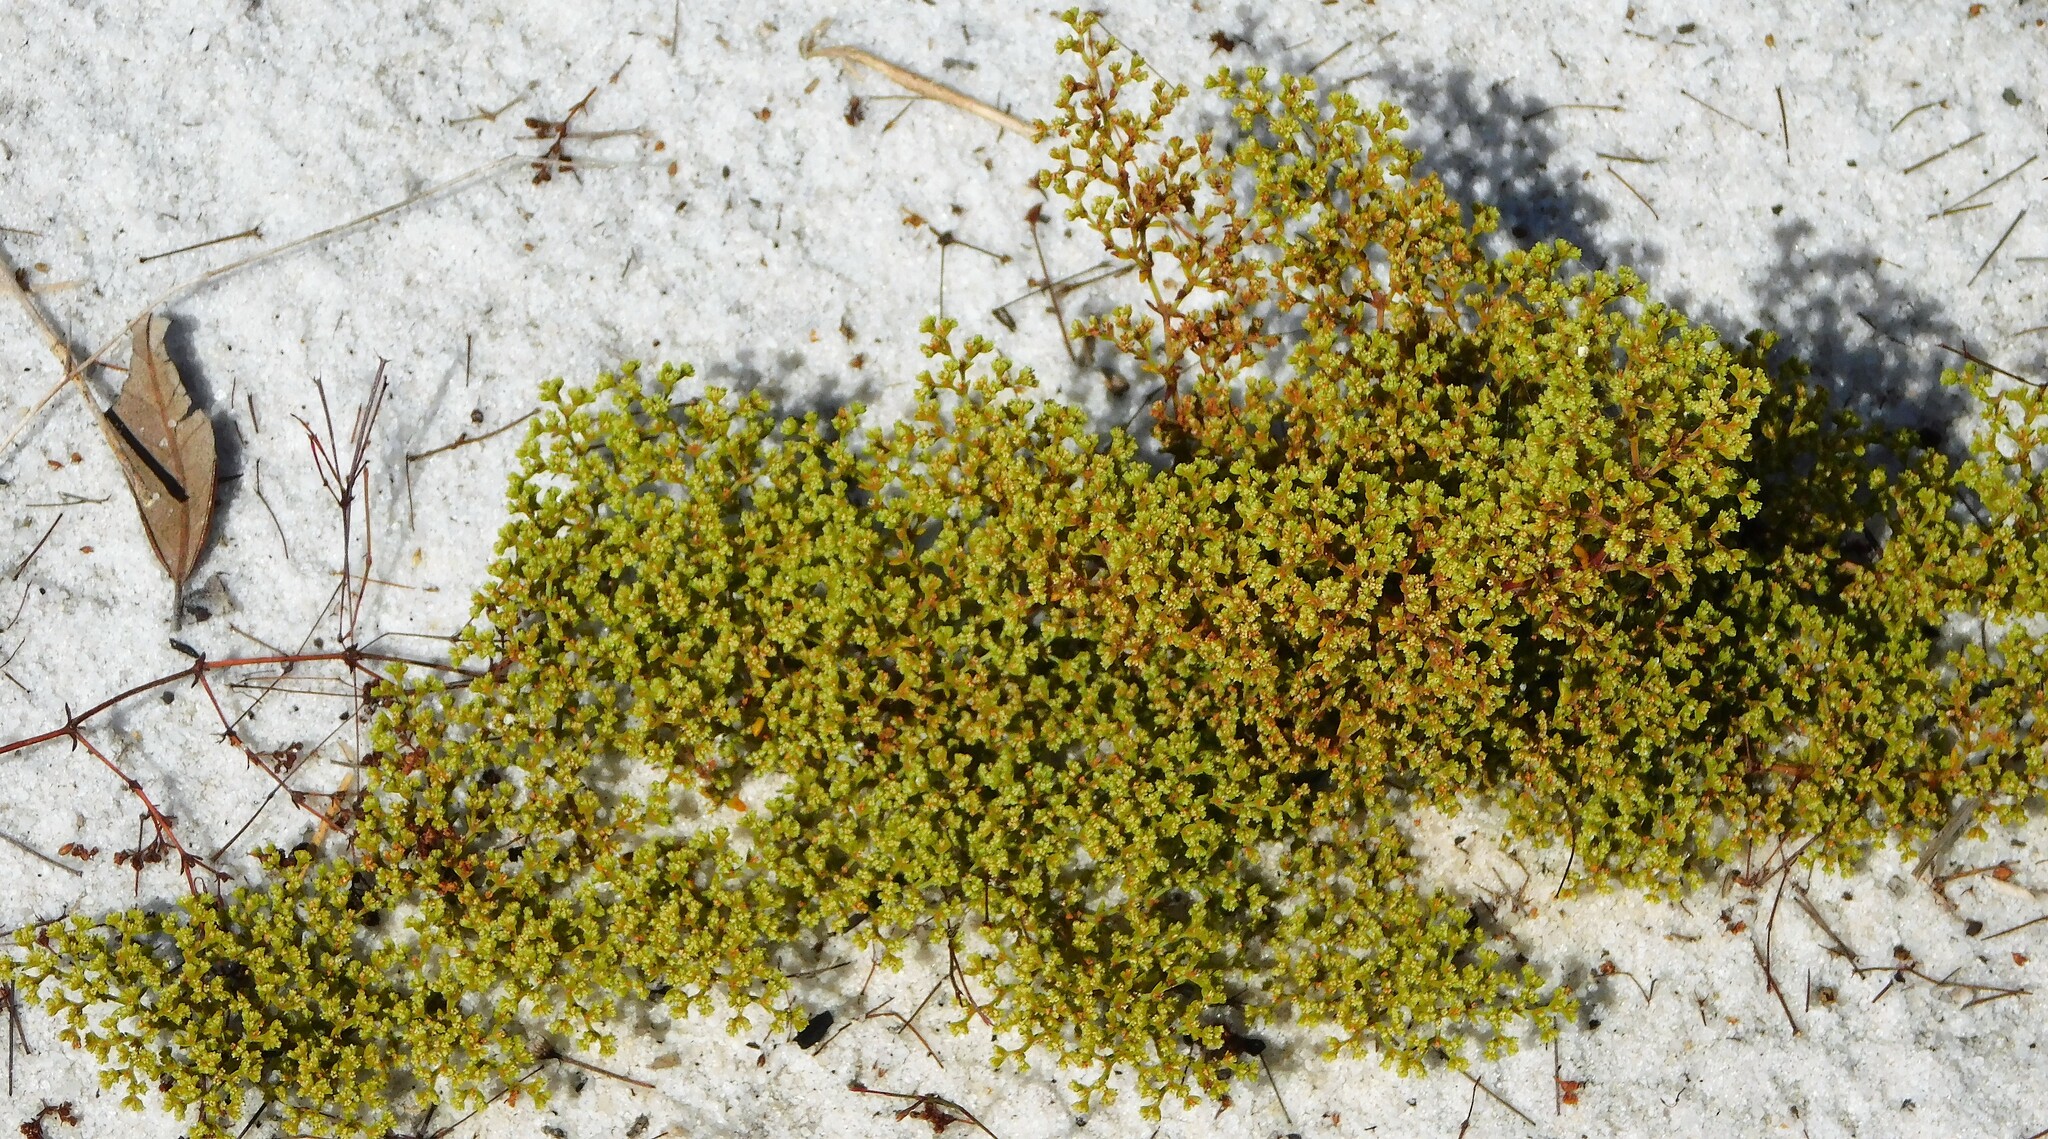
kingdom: Plantae
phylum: Tracheophyta
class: Magnoliopsida
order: Caryophyllales
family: Caryophyllaceae
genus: Paronychia
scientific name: Paronychia chartacea
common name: Paper nailwort
